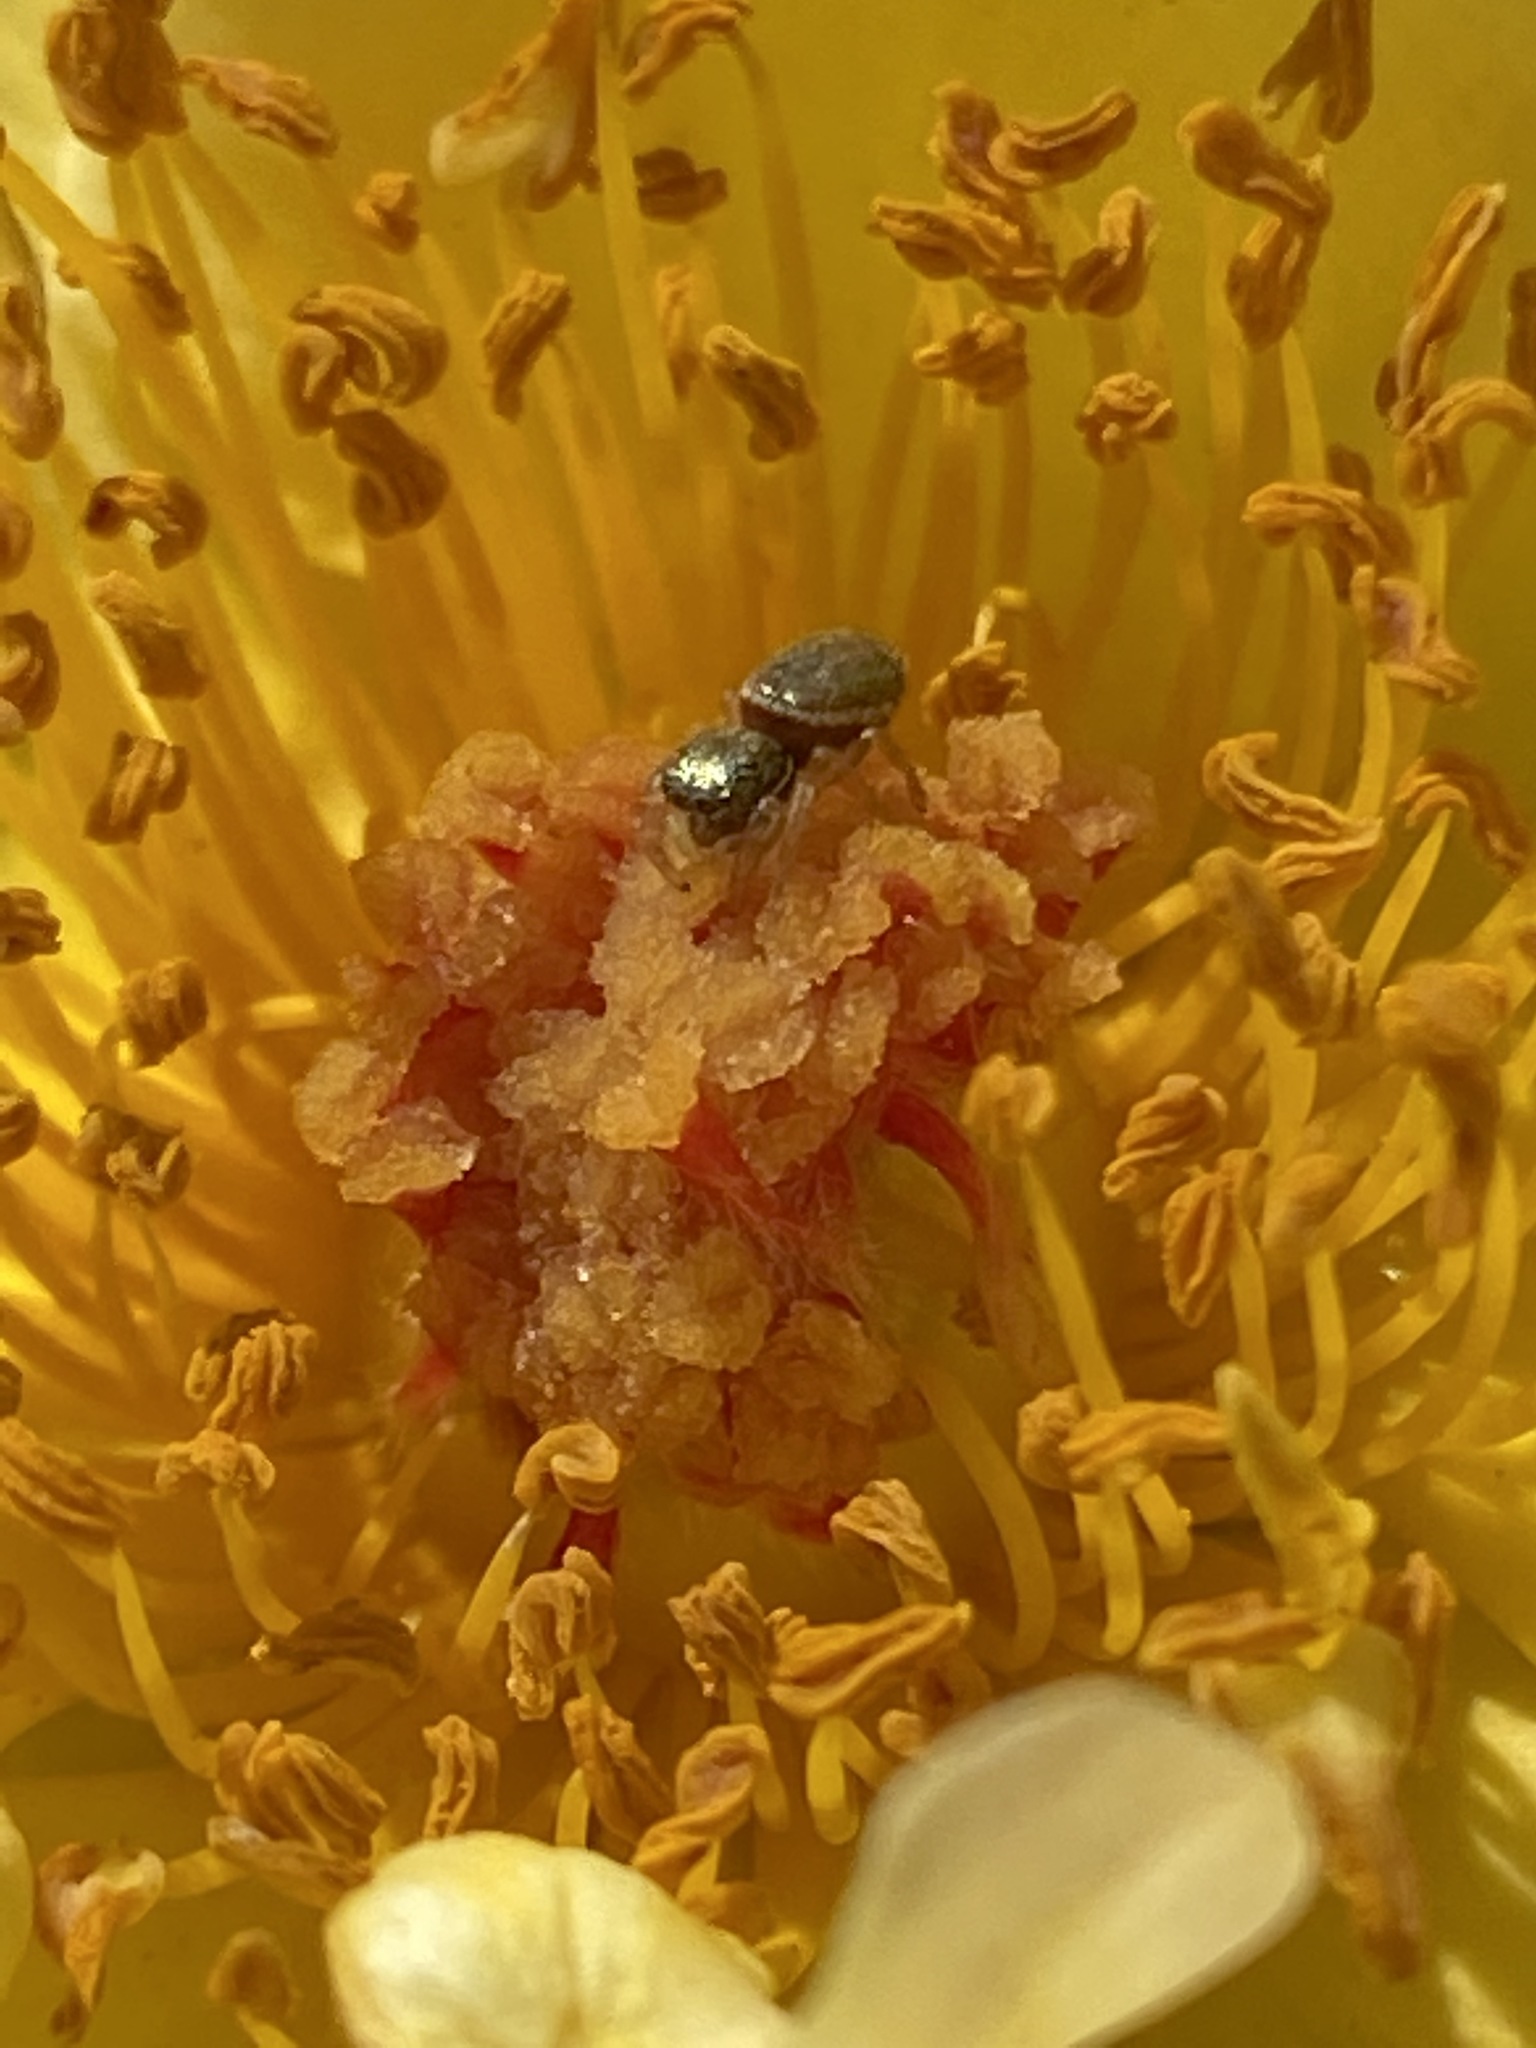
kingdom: Animalia
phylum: Arthropoda
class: Arachnida
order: Araneae
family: Salticidae
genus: Sassacus
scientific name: Sassacus vitis
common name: Jumping spiders
